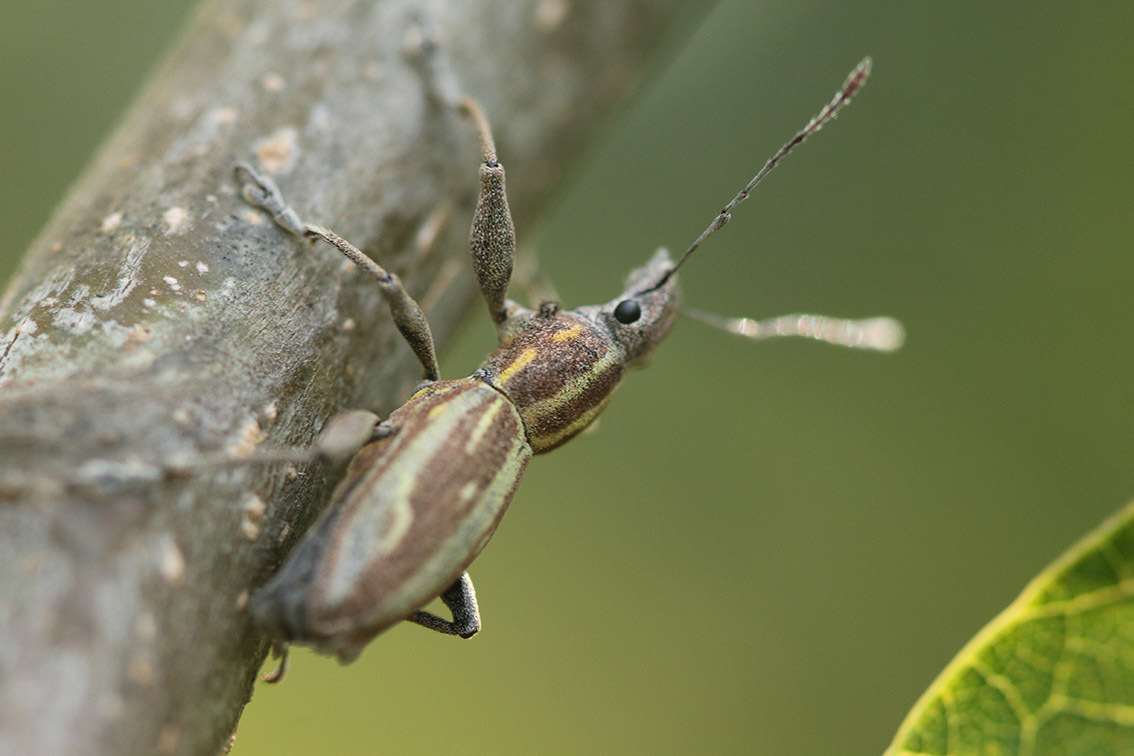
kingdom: Animalia
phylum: Arthropoda
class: Insecta
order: Coleoptera
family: Curculionidae
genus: Naupactus
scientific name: Naupactus xanthographus
